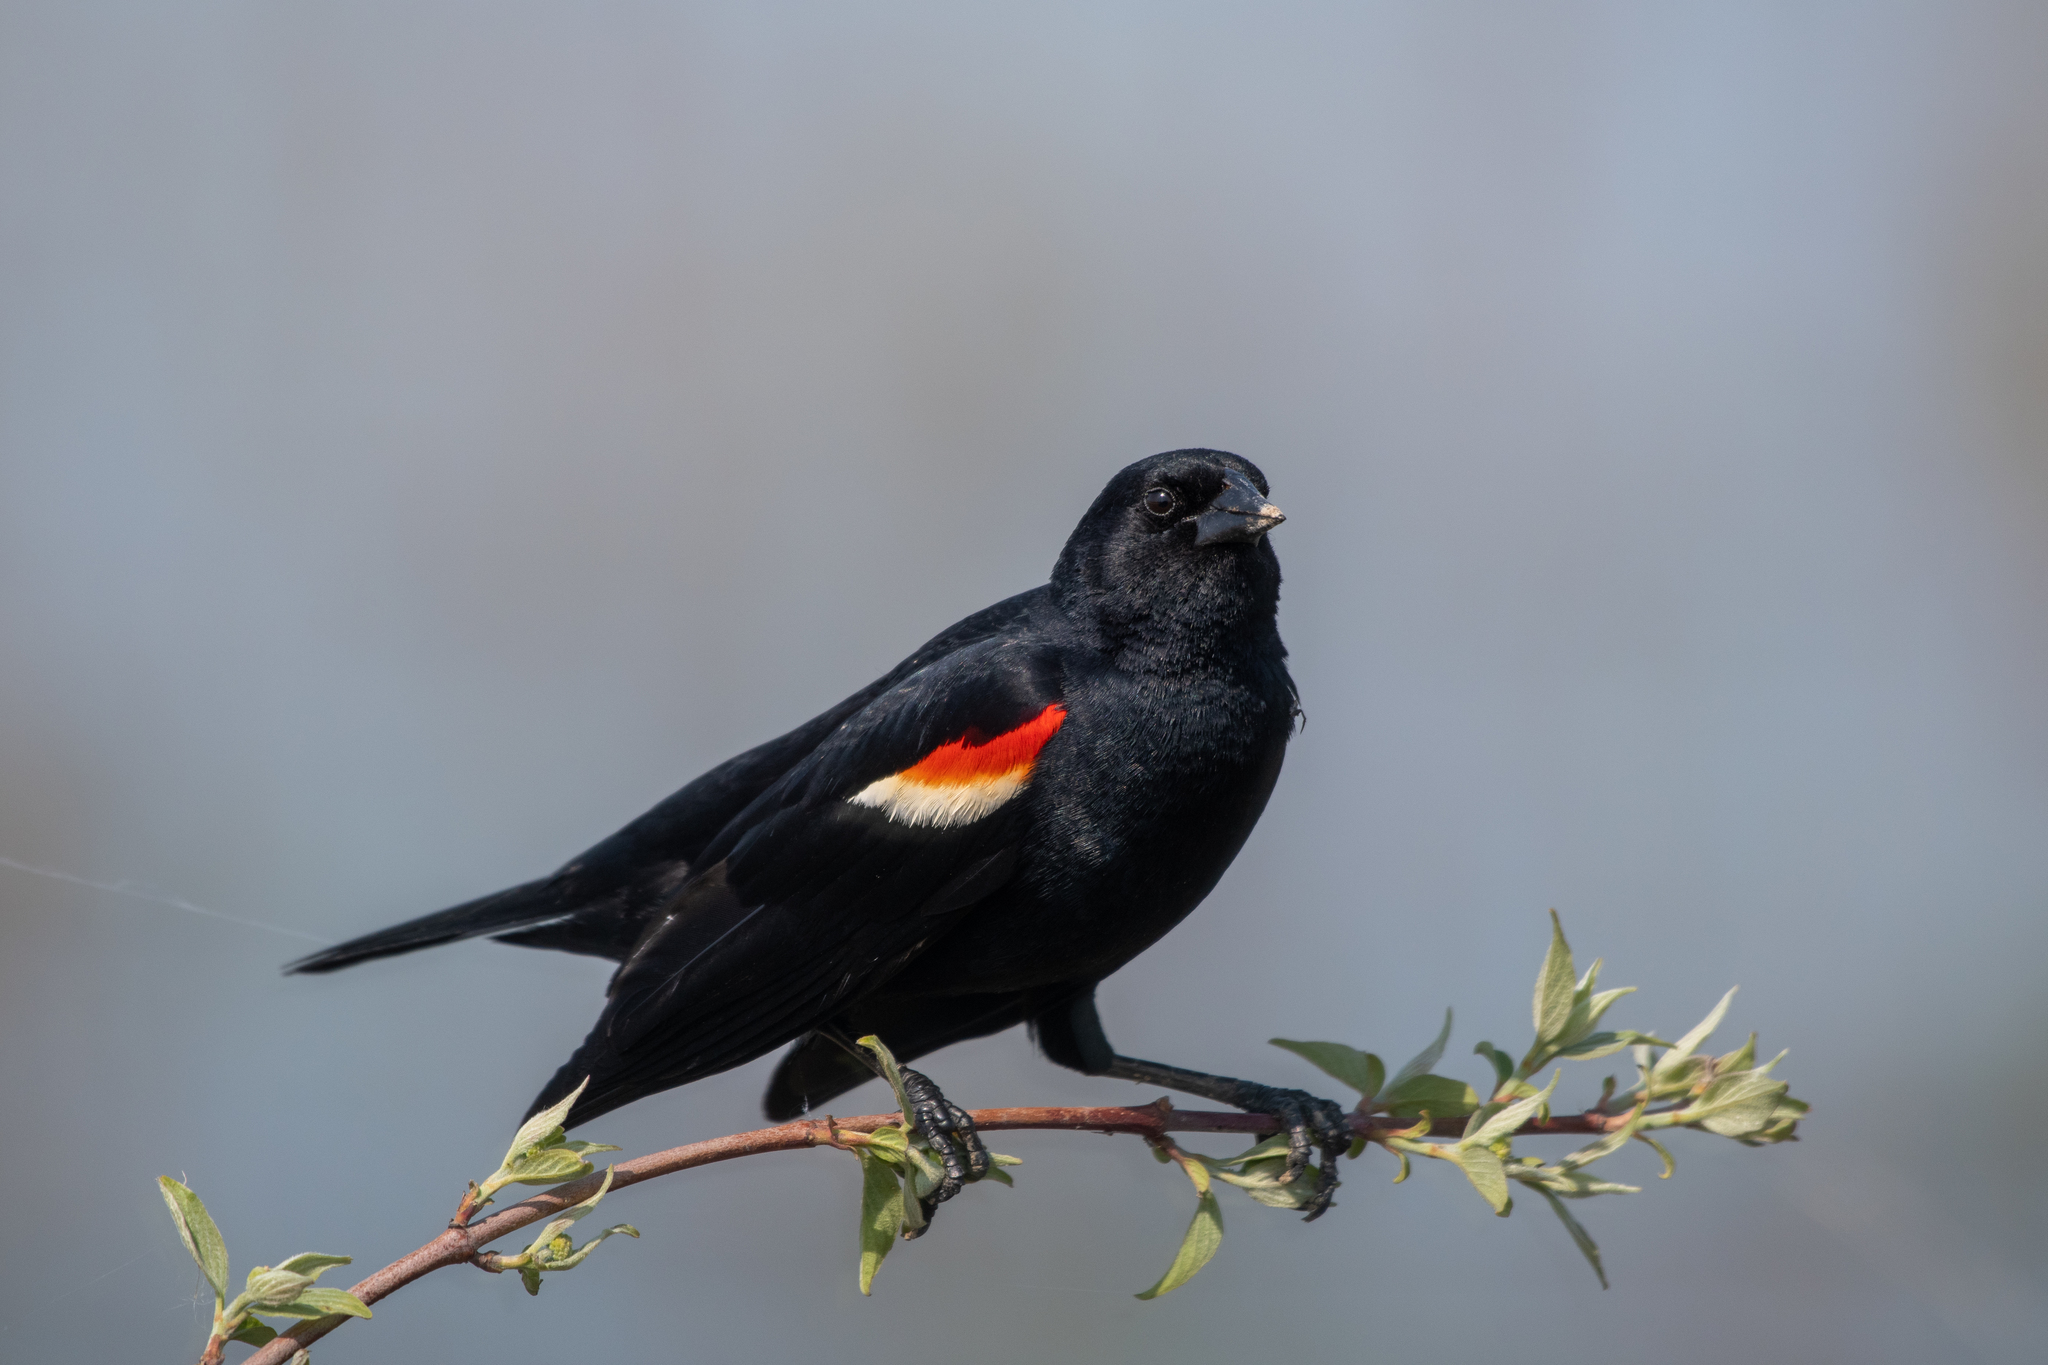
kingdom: Animalia
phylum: Chordata
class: Aves
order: Passeriformes
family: Icteridae
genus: Agelaius
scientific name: Agelaius phoeniceus
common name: Red-winged blackbird
